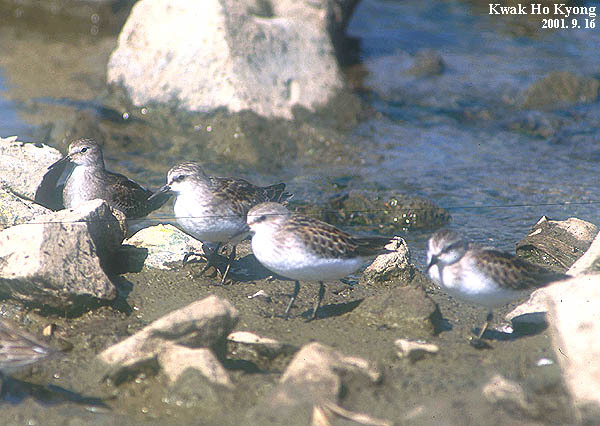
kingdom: Animalia
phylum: Chordata
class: Aves
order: Charadriiformes
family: Scolopacidae
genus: Calidris
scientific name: Calidris ruficollis
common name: Red-necked stint
